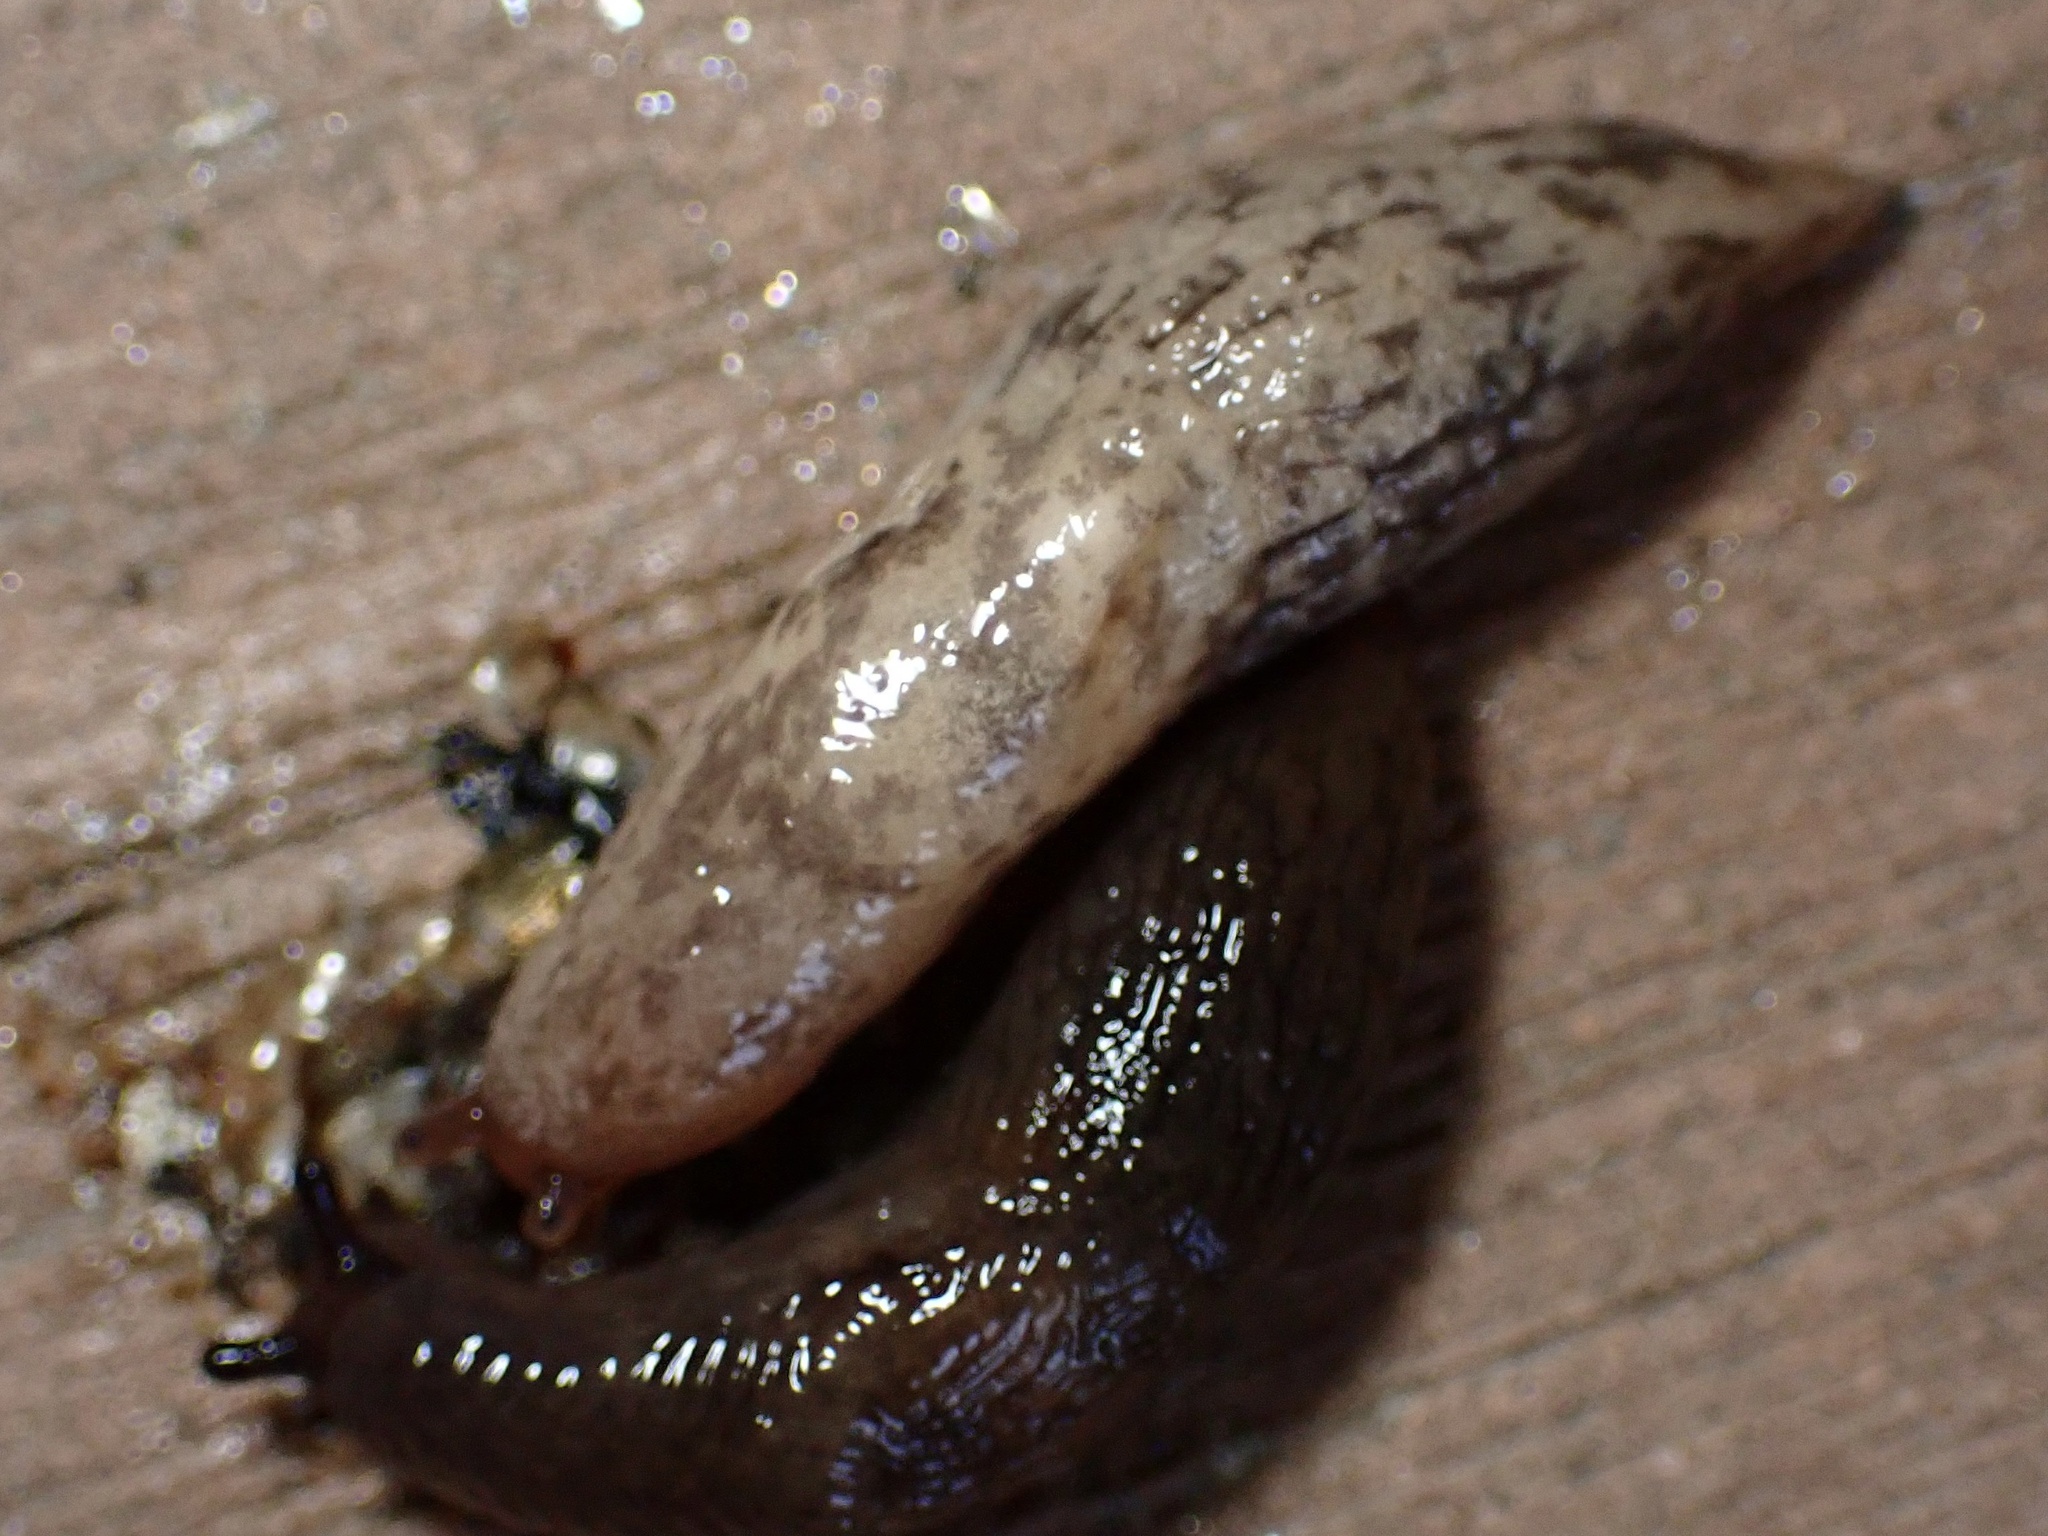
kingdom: Animalia
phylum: Mollusca
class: Gastropoda
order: Stylommatophora
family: Agriolimacidae
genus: Deroceras
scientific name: Deroceras reticulatum
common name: Gray field slug
